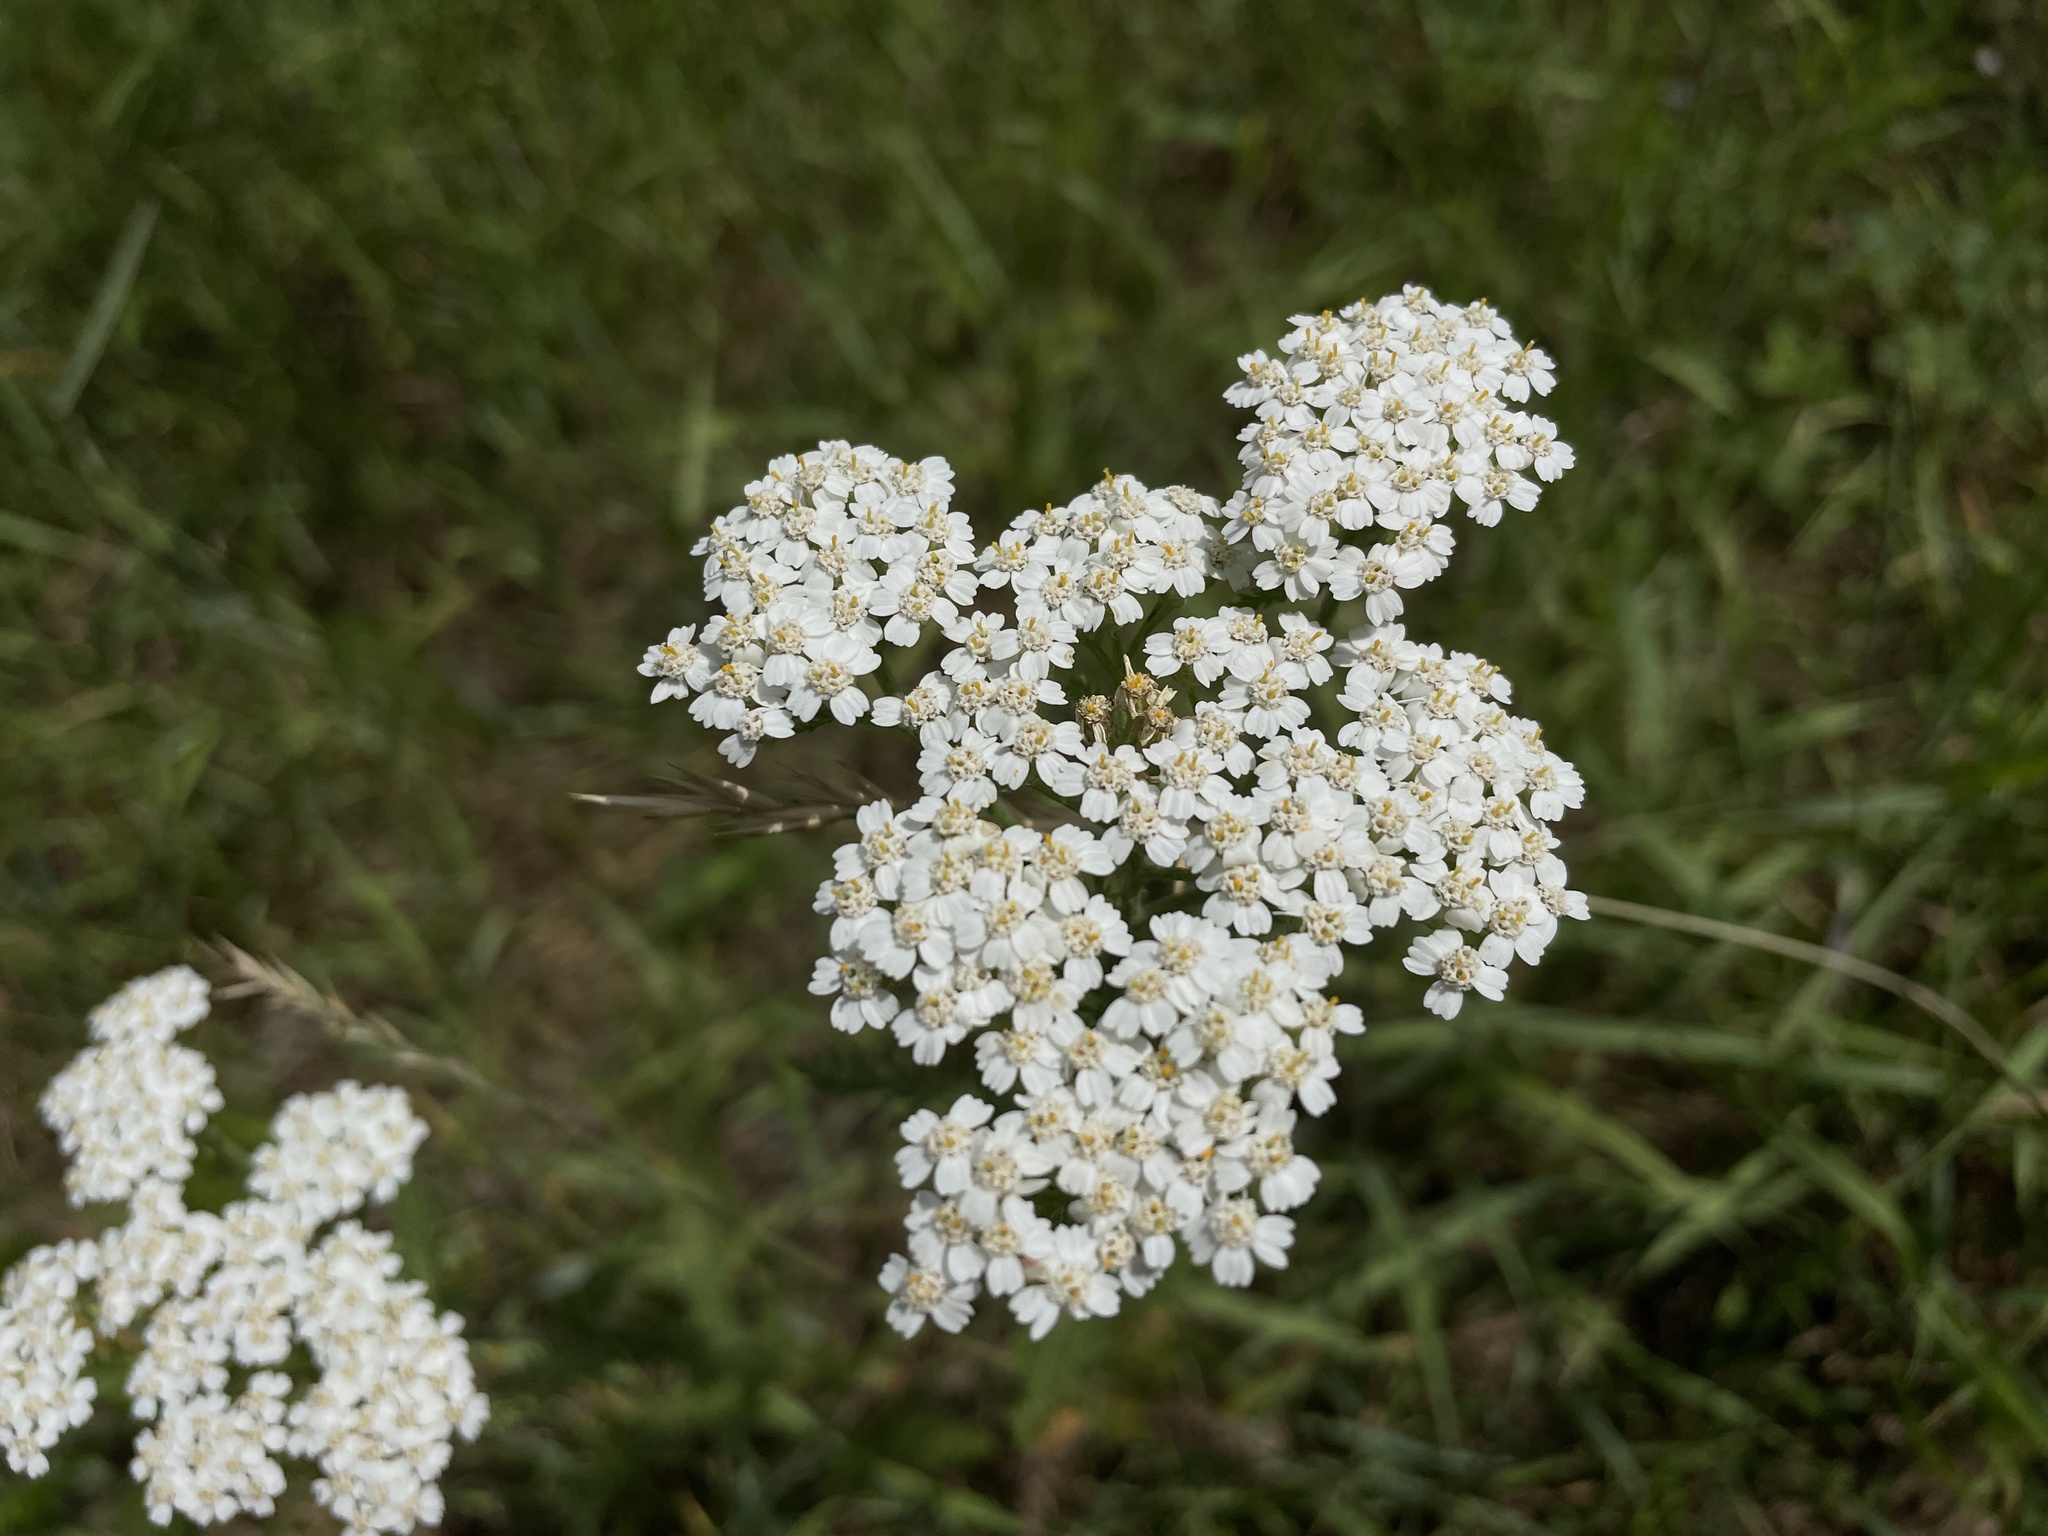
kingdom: Plantae
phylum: Tracheophyta
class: Magnoliopsida
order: Asterales
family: Asteraceae
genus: Achillea
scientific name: Achillea millefolium
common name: Yarrow
